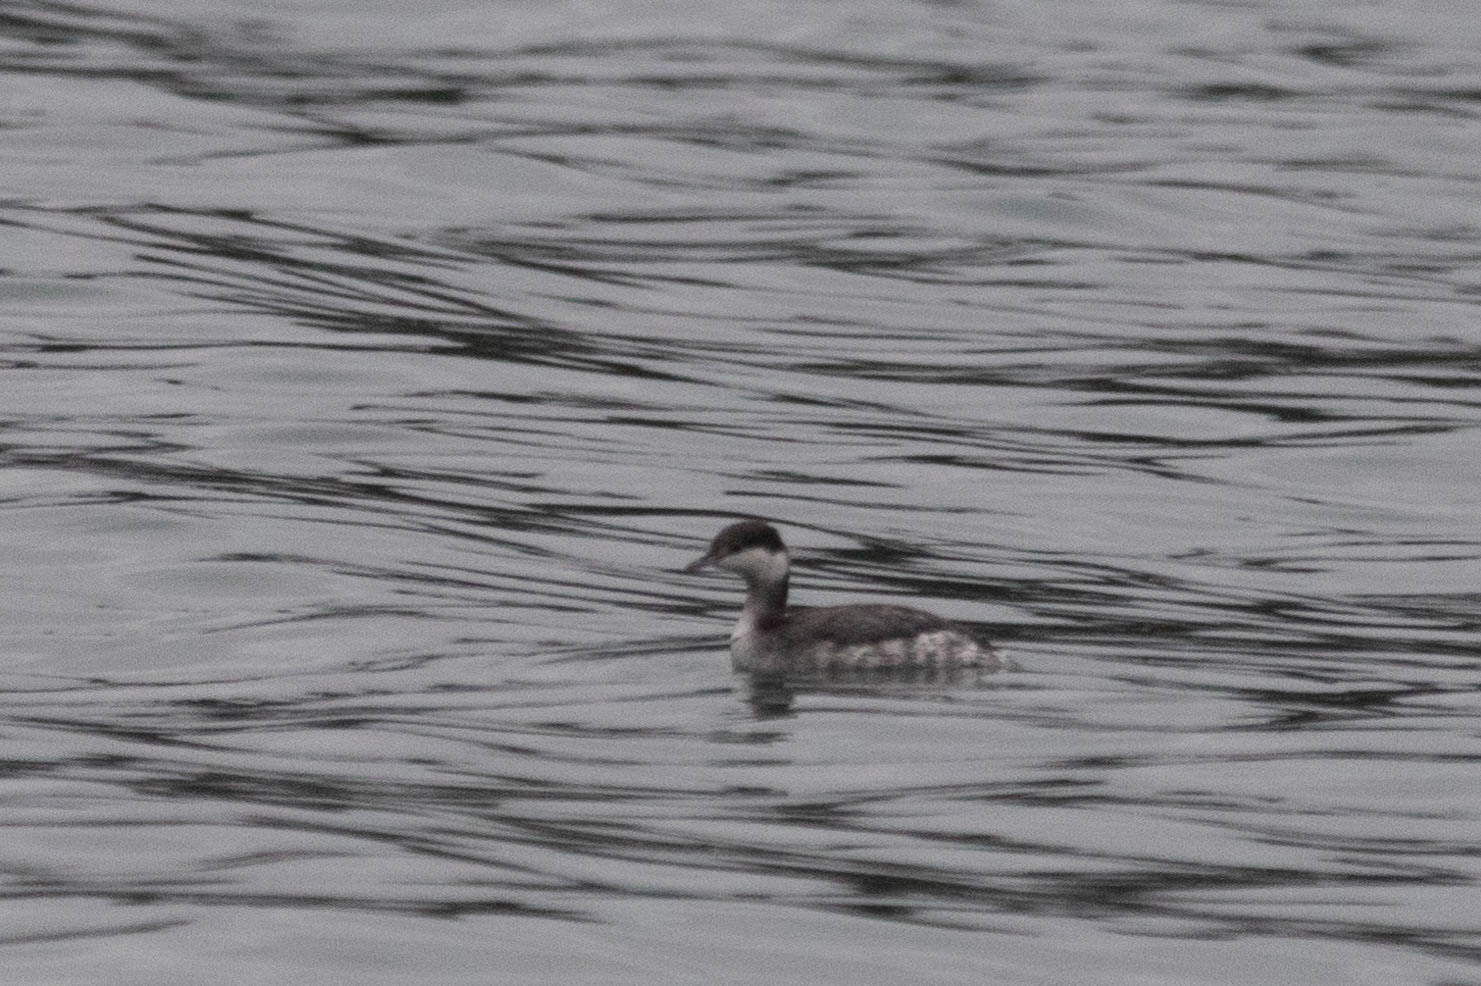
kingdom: Animalia
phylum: Chordata
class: Aves
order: Podicipediformes
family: Podicipedidae
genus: Podiceps
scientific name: Podiceps auritus
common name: Horned grebe
